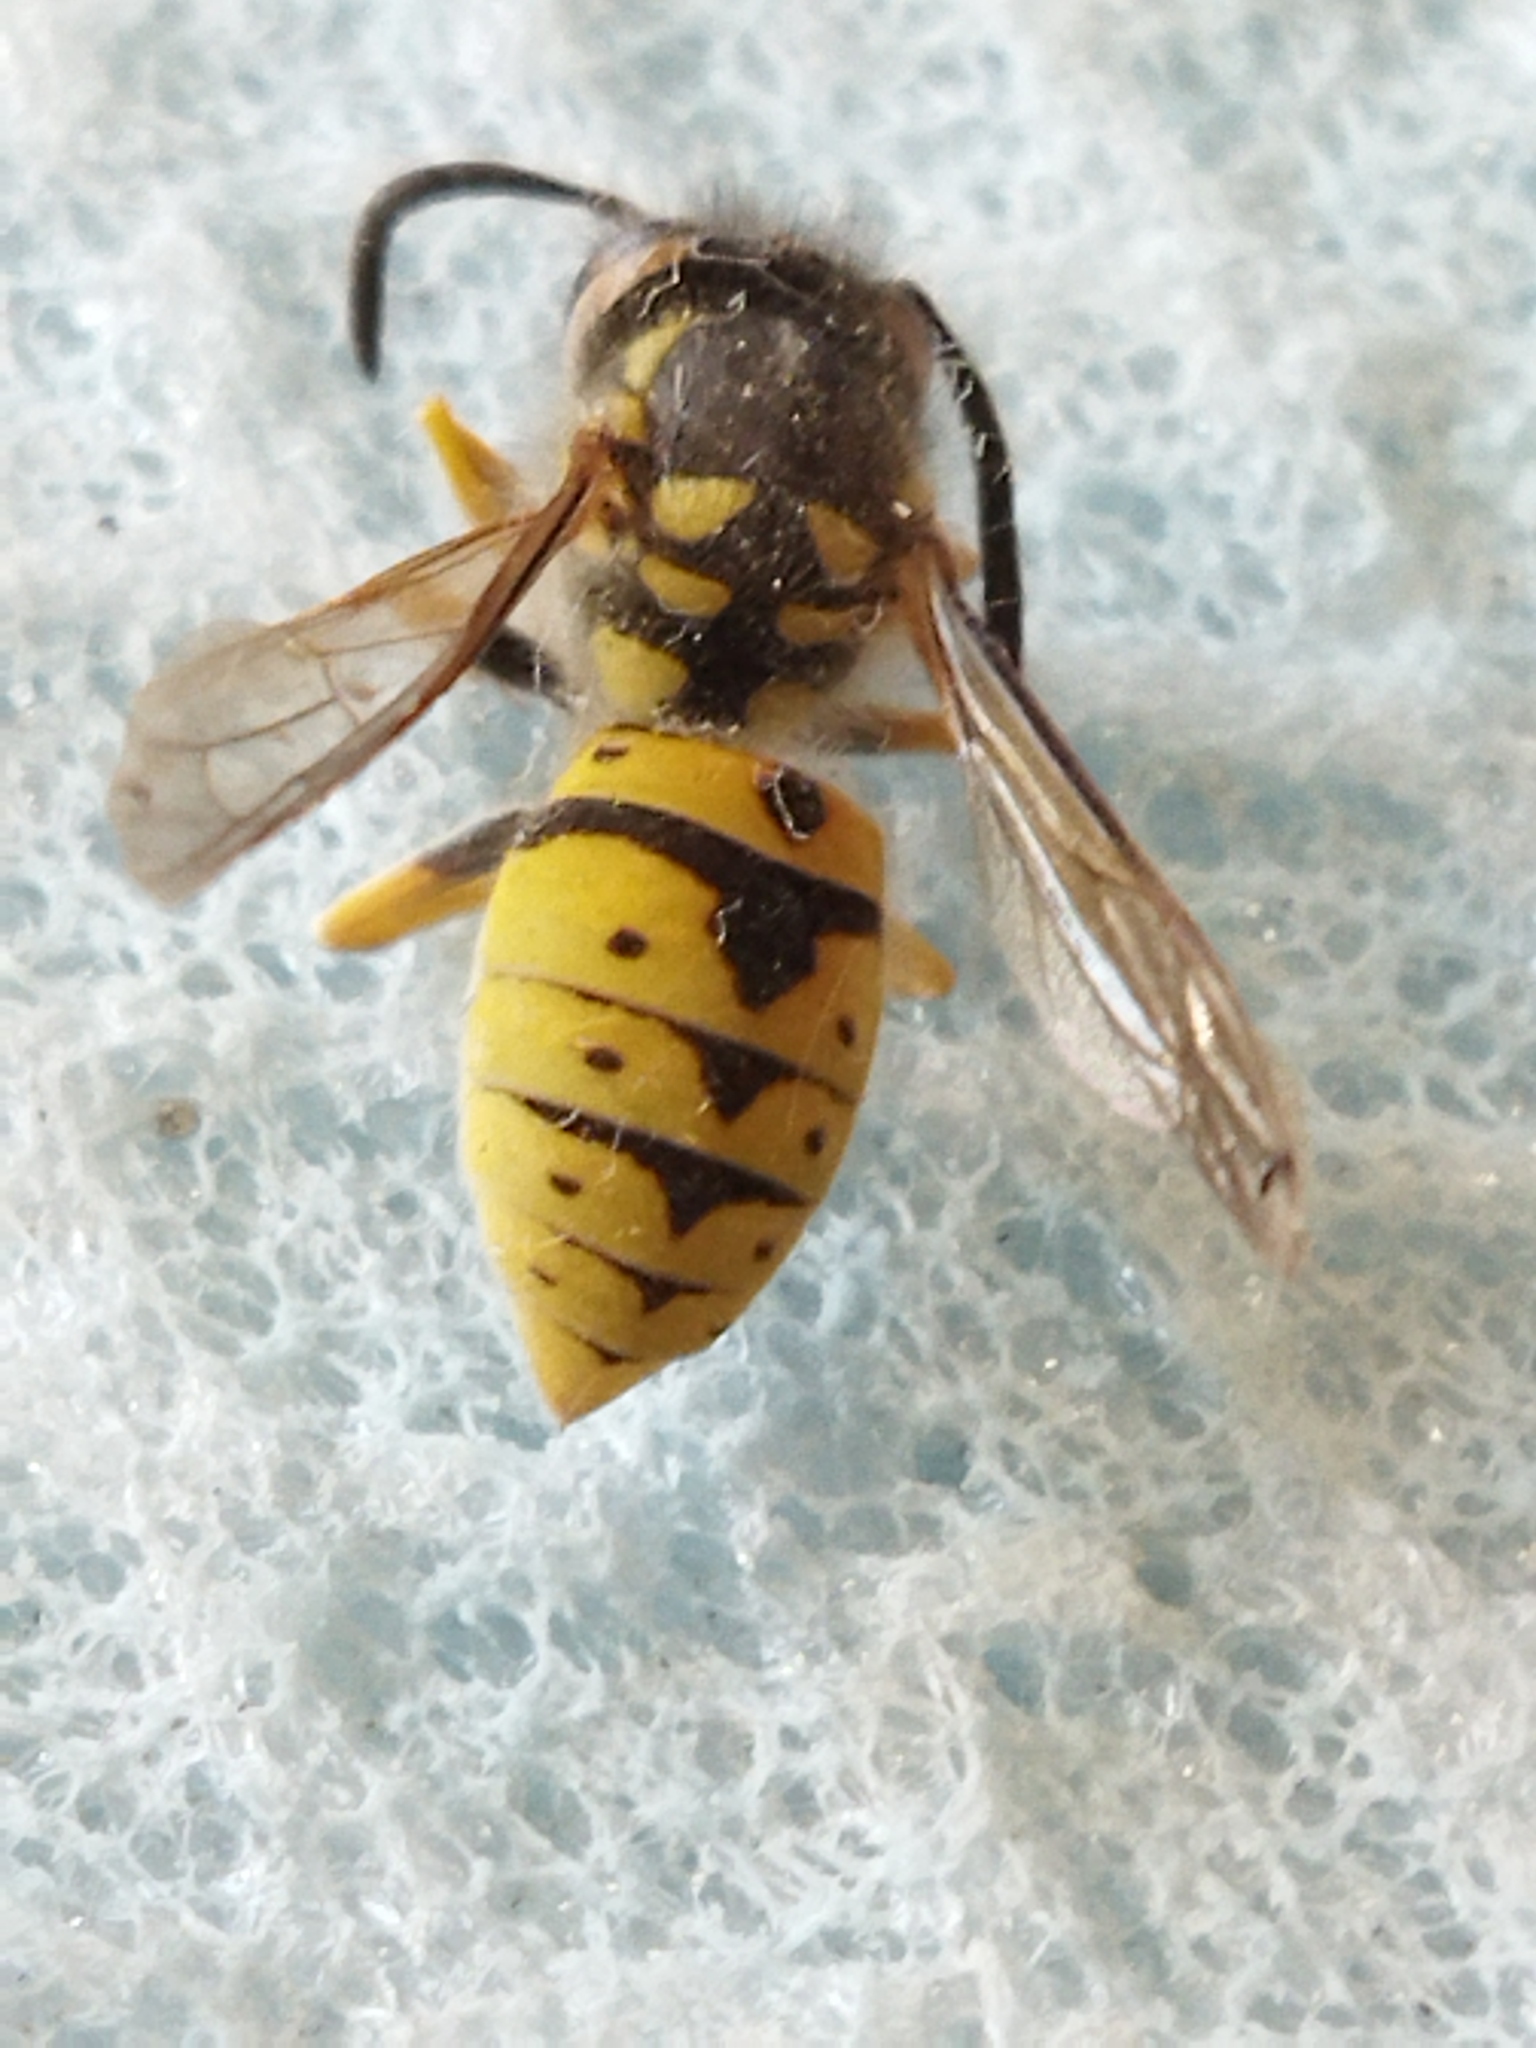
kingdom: Animalia
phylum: Arthropoda
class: Insecta
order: Hymenoptera
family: Vespidae
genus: Vespula
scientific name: Vespula germanica
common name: German wasp
